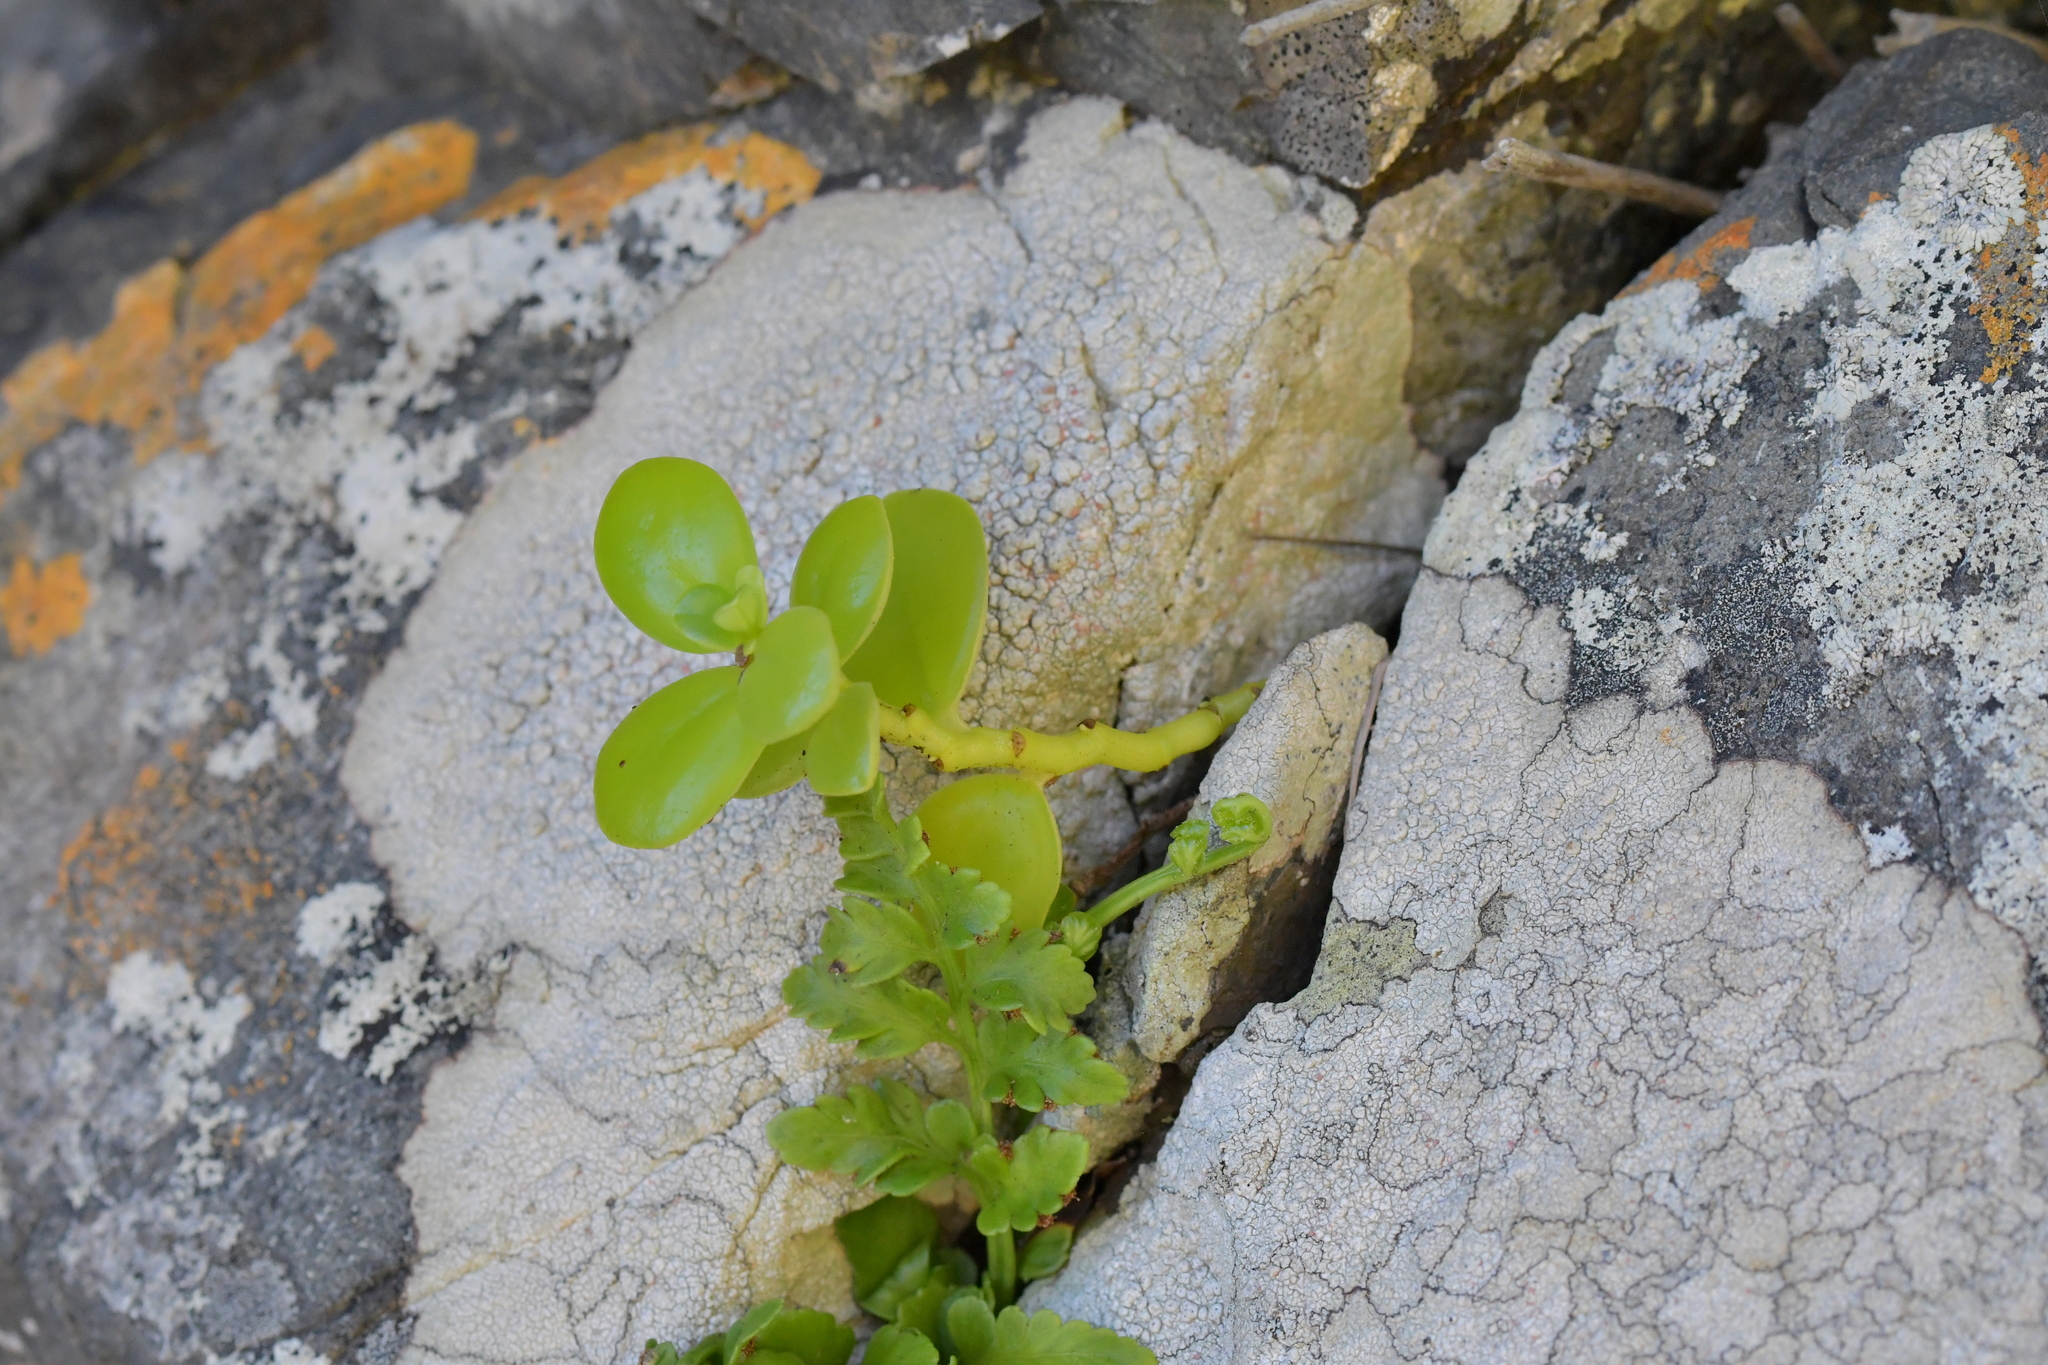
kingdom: Plantae
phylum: Tracheophyta
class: Magnoliopsida
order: Piperales
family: Piperaceae
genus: Peperomia
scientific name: Peperomia urvilleana
